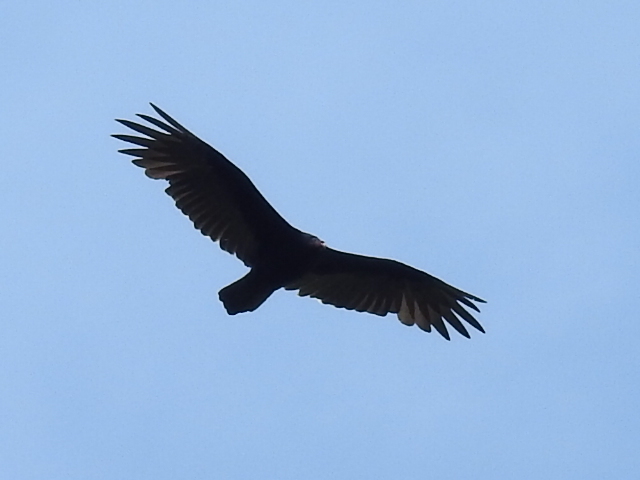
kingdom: Animalia
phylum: Chordata
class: Aves
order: Accipitriformes
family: Cathartidae
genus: Cathartes
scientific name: Cathartes aura
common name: Turkey vulture
